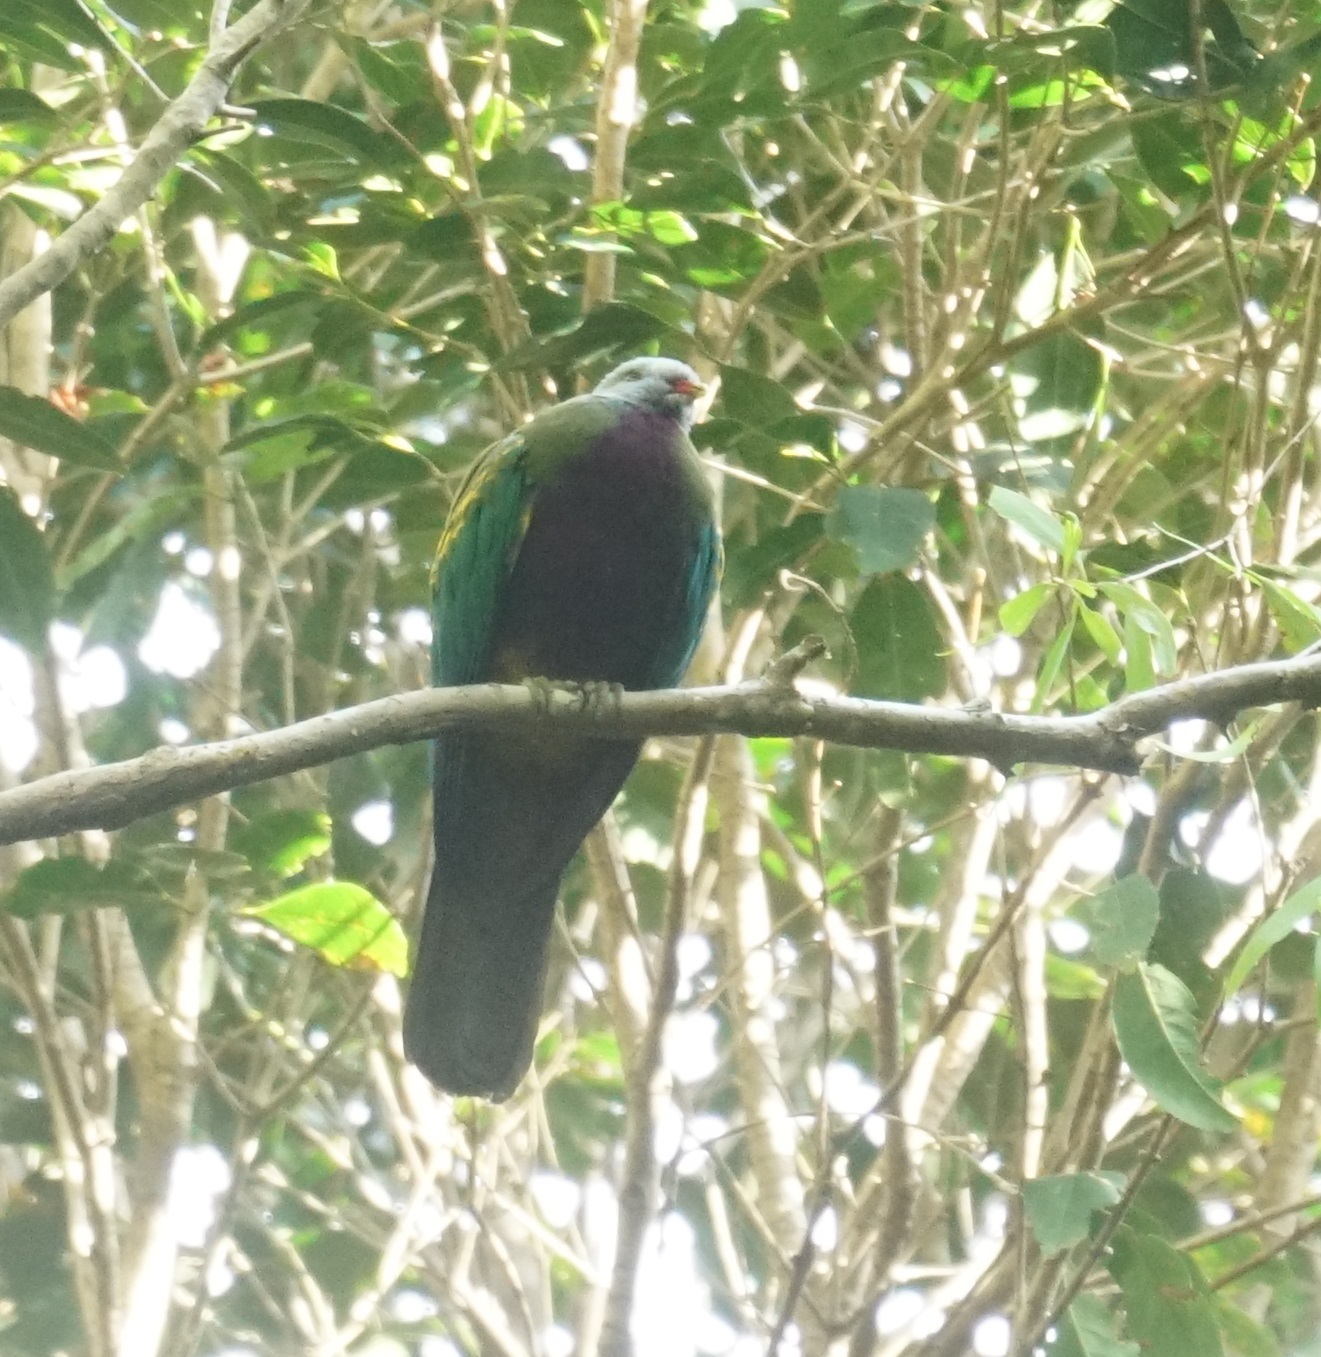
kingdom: Animalia
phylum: Chordata
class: Aves
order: Columbiformes
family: Columbidae
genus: Ptilinopus
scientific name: Ptilinopus magnificus
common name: Wompoo fruit dove
